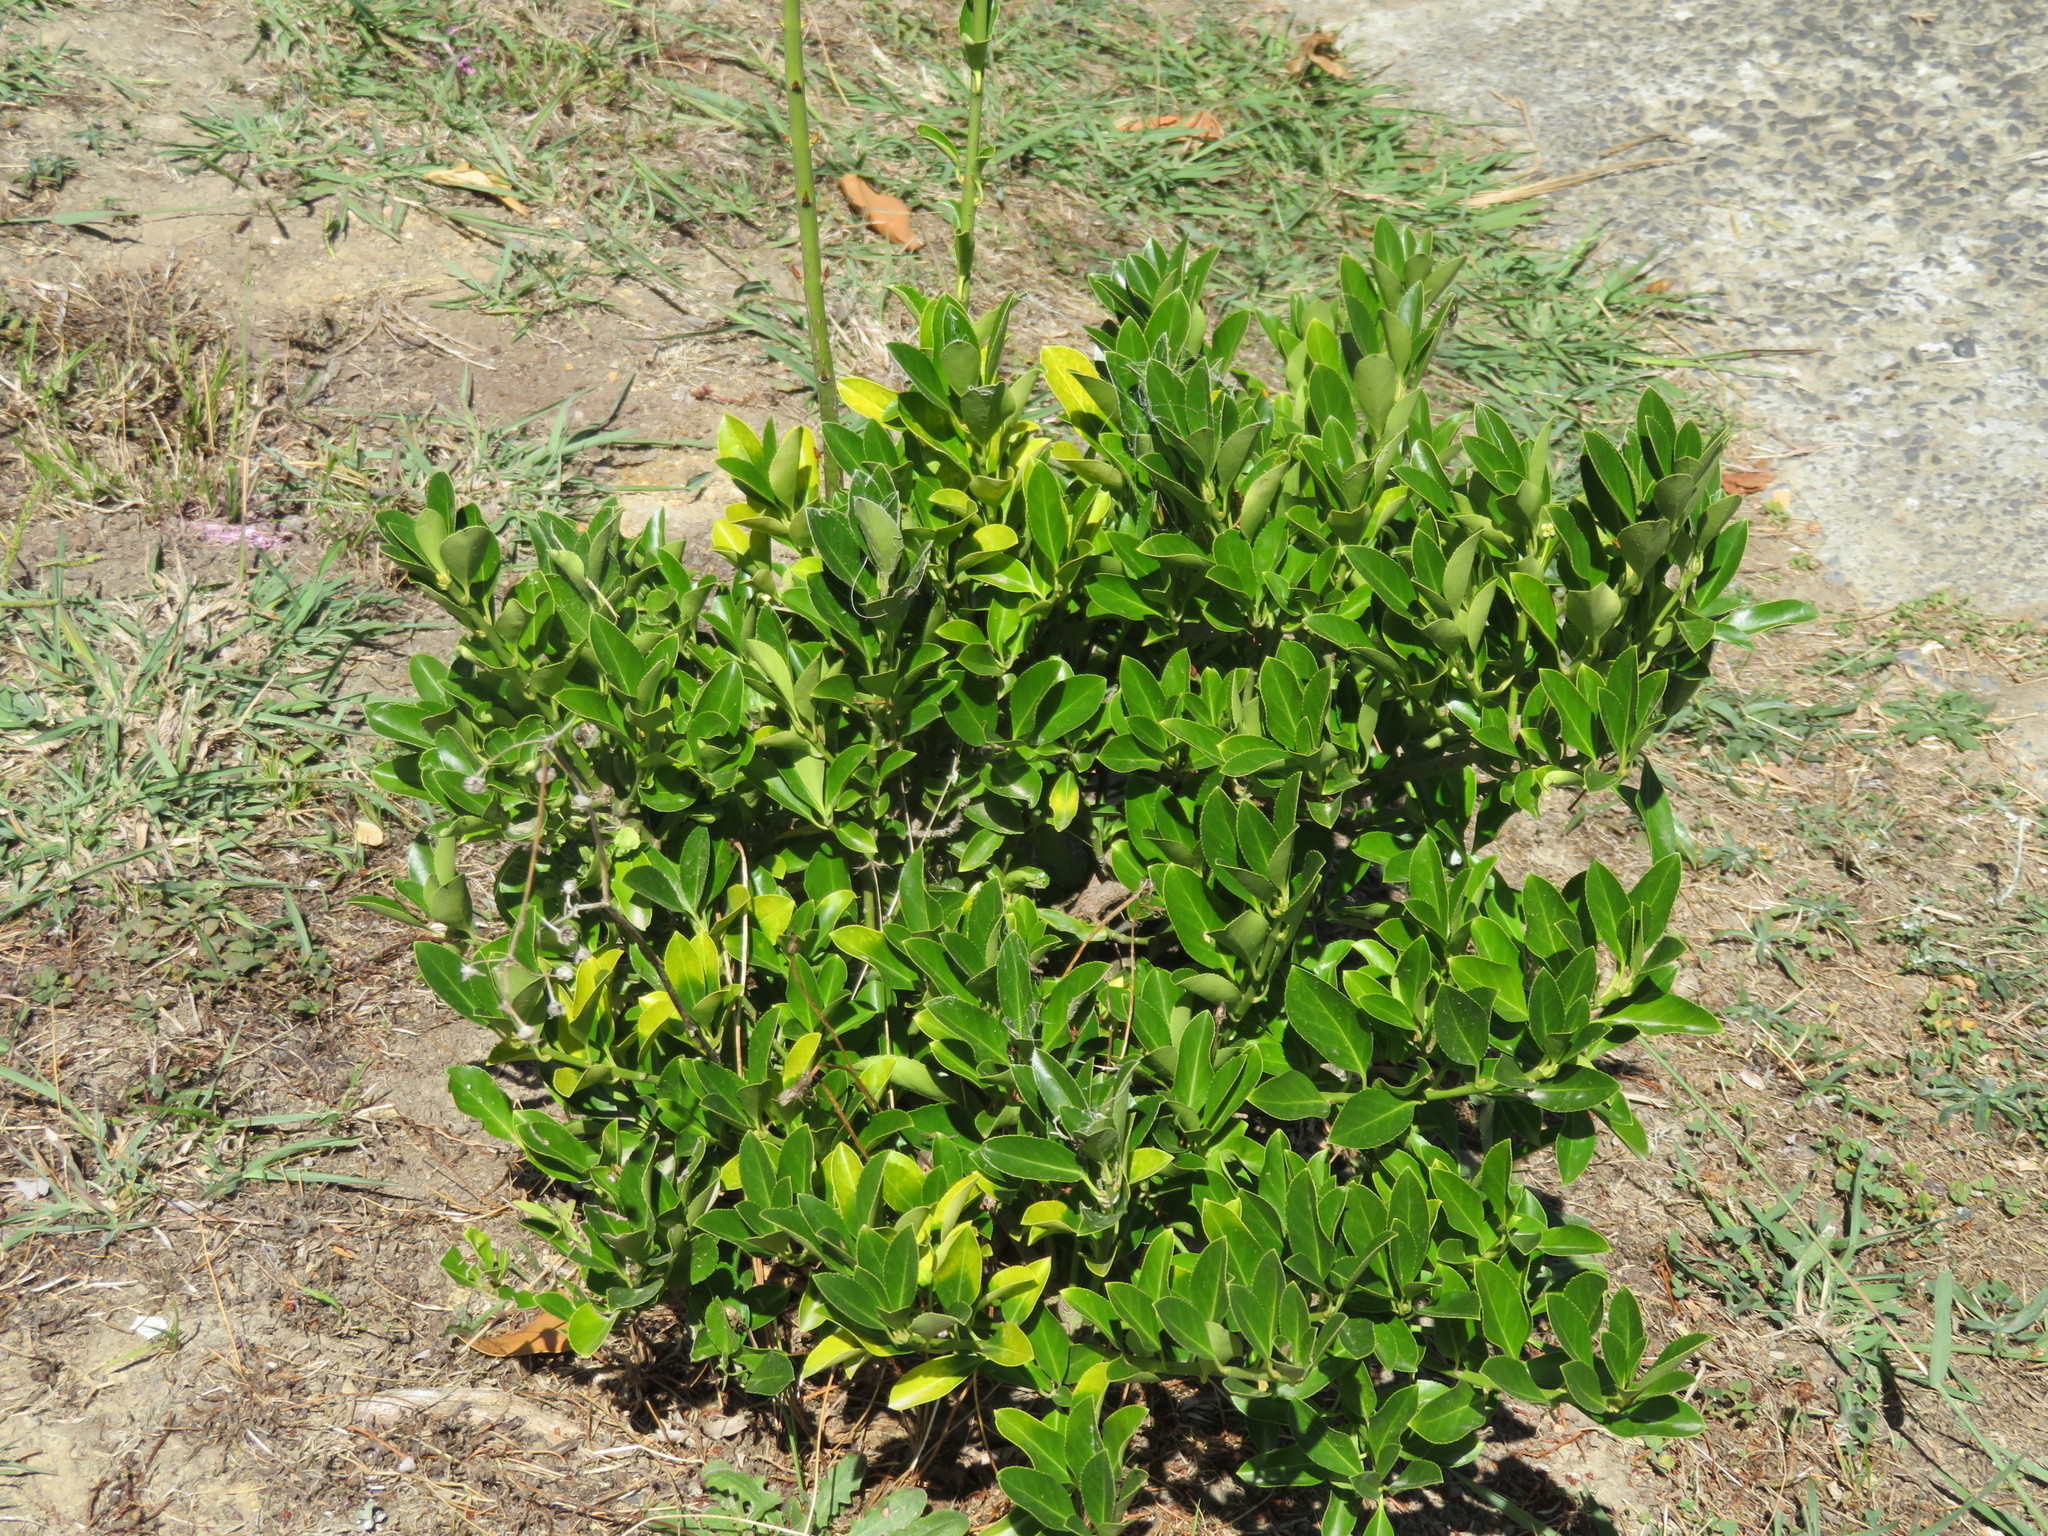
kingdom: Plantae
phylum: Tracheophyta
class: Magnoliopsida
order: Celastrales
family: Celastraceae
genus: Euonymus
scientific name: Euonymus japonicus
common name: Japanese spindletree
